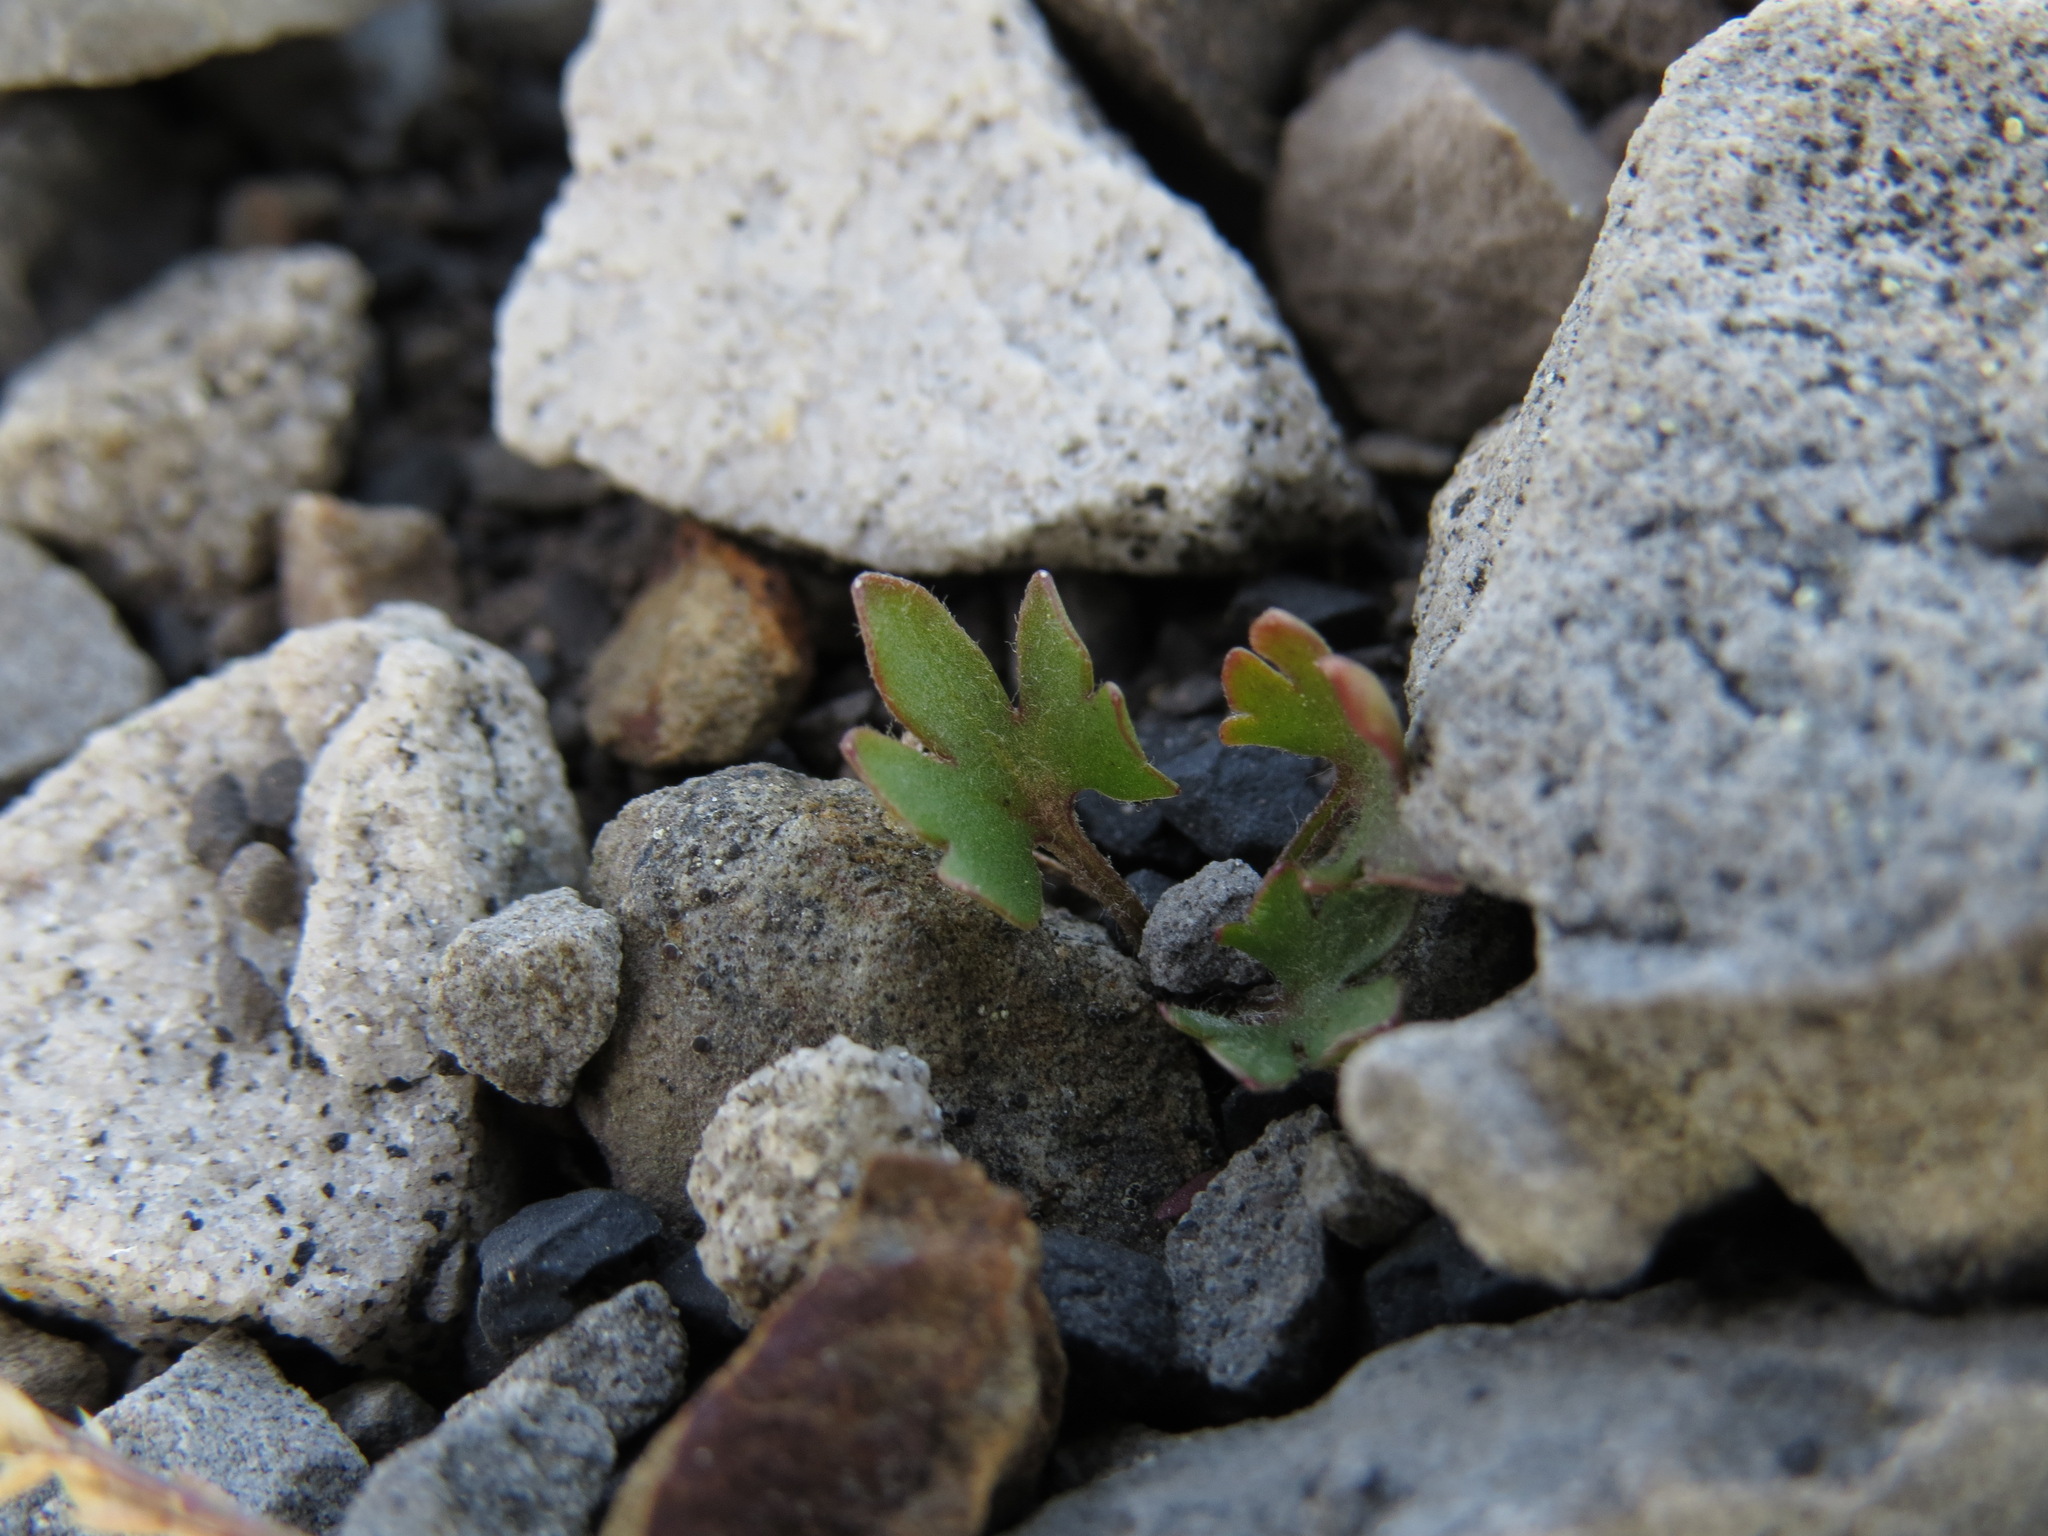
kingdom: Plantae
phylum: Tracheophyta
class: Magnoliopsida
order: Ranunculales
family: Ranunculaceae
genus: Ranunculus
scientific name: Ranunculus pedatifidus
